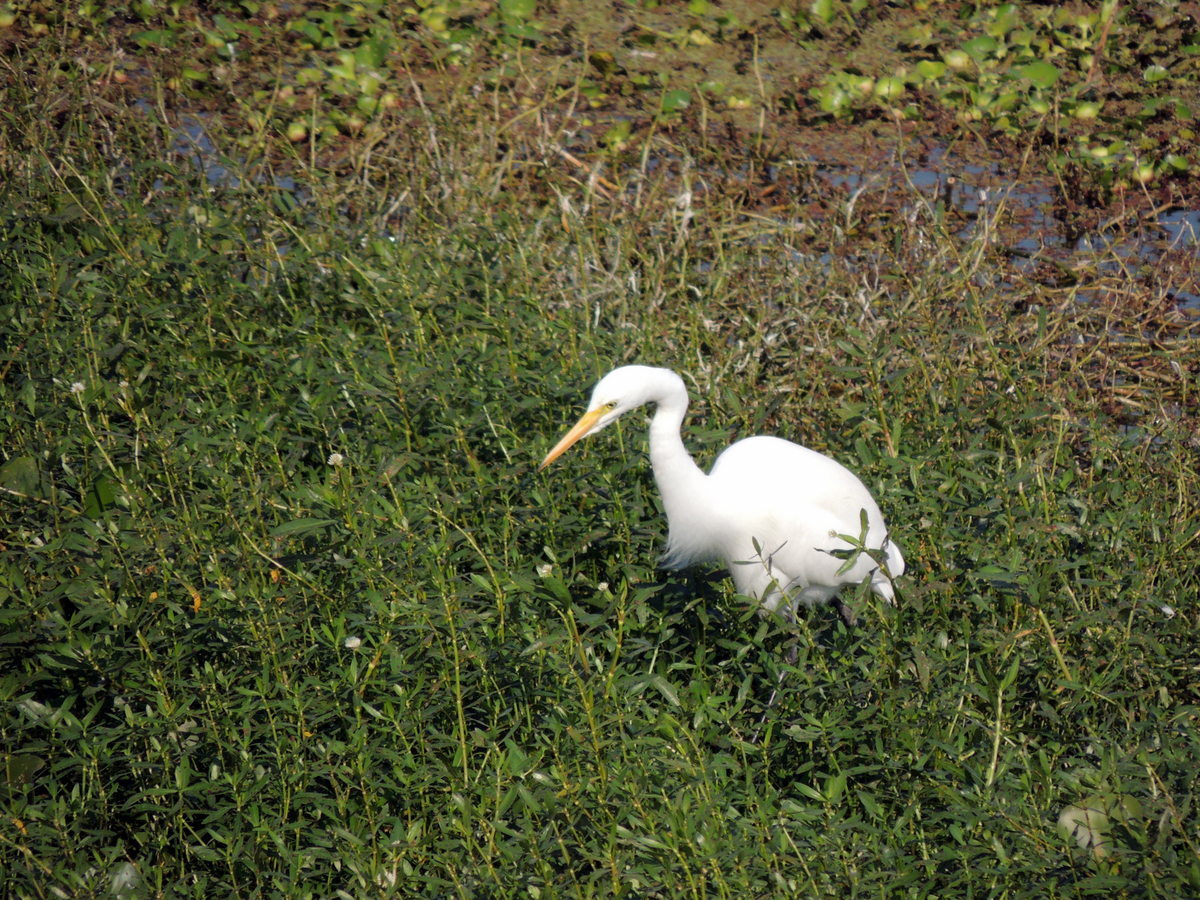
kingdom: Animalia
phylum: Chordata
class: Aves
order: Pelecaniformes
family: Ardeidae
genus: Ardea
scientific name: Ardea alba
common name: Great egret
